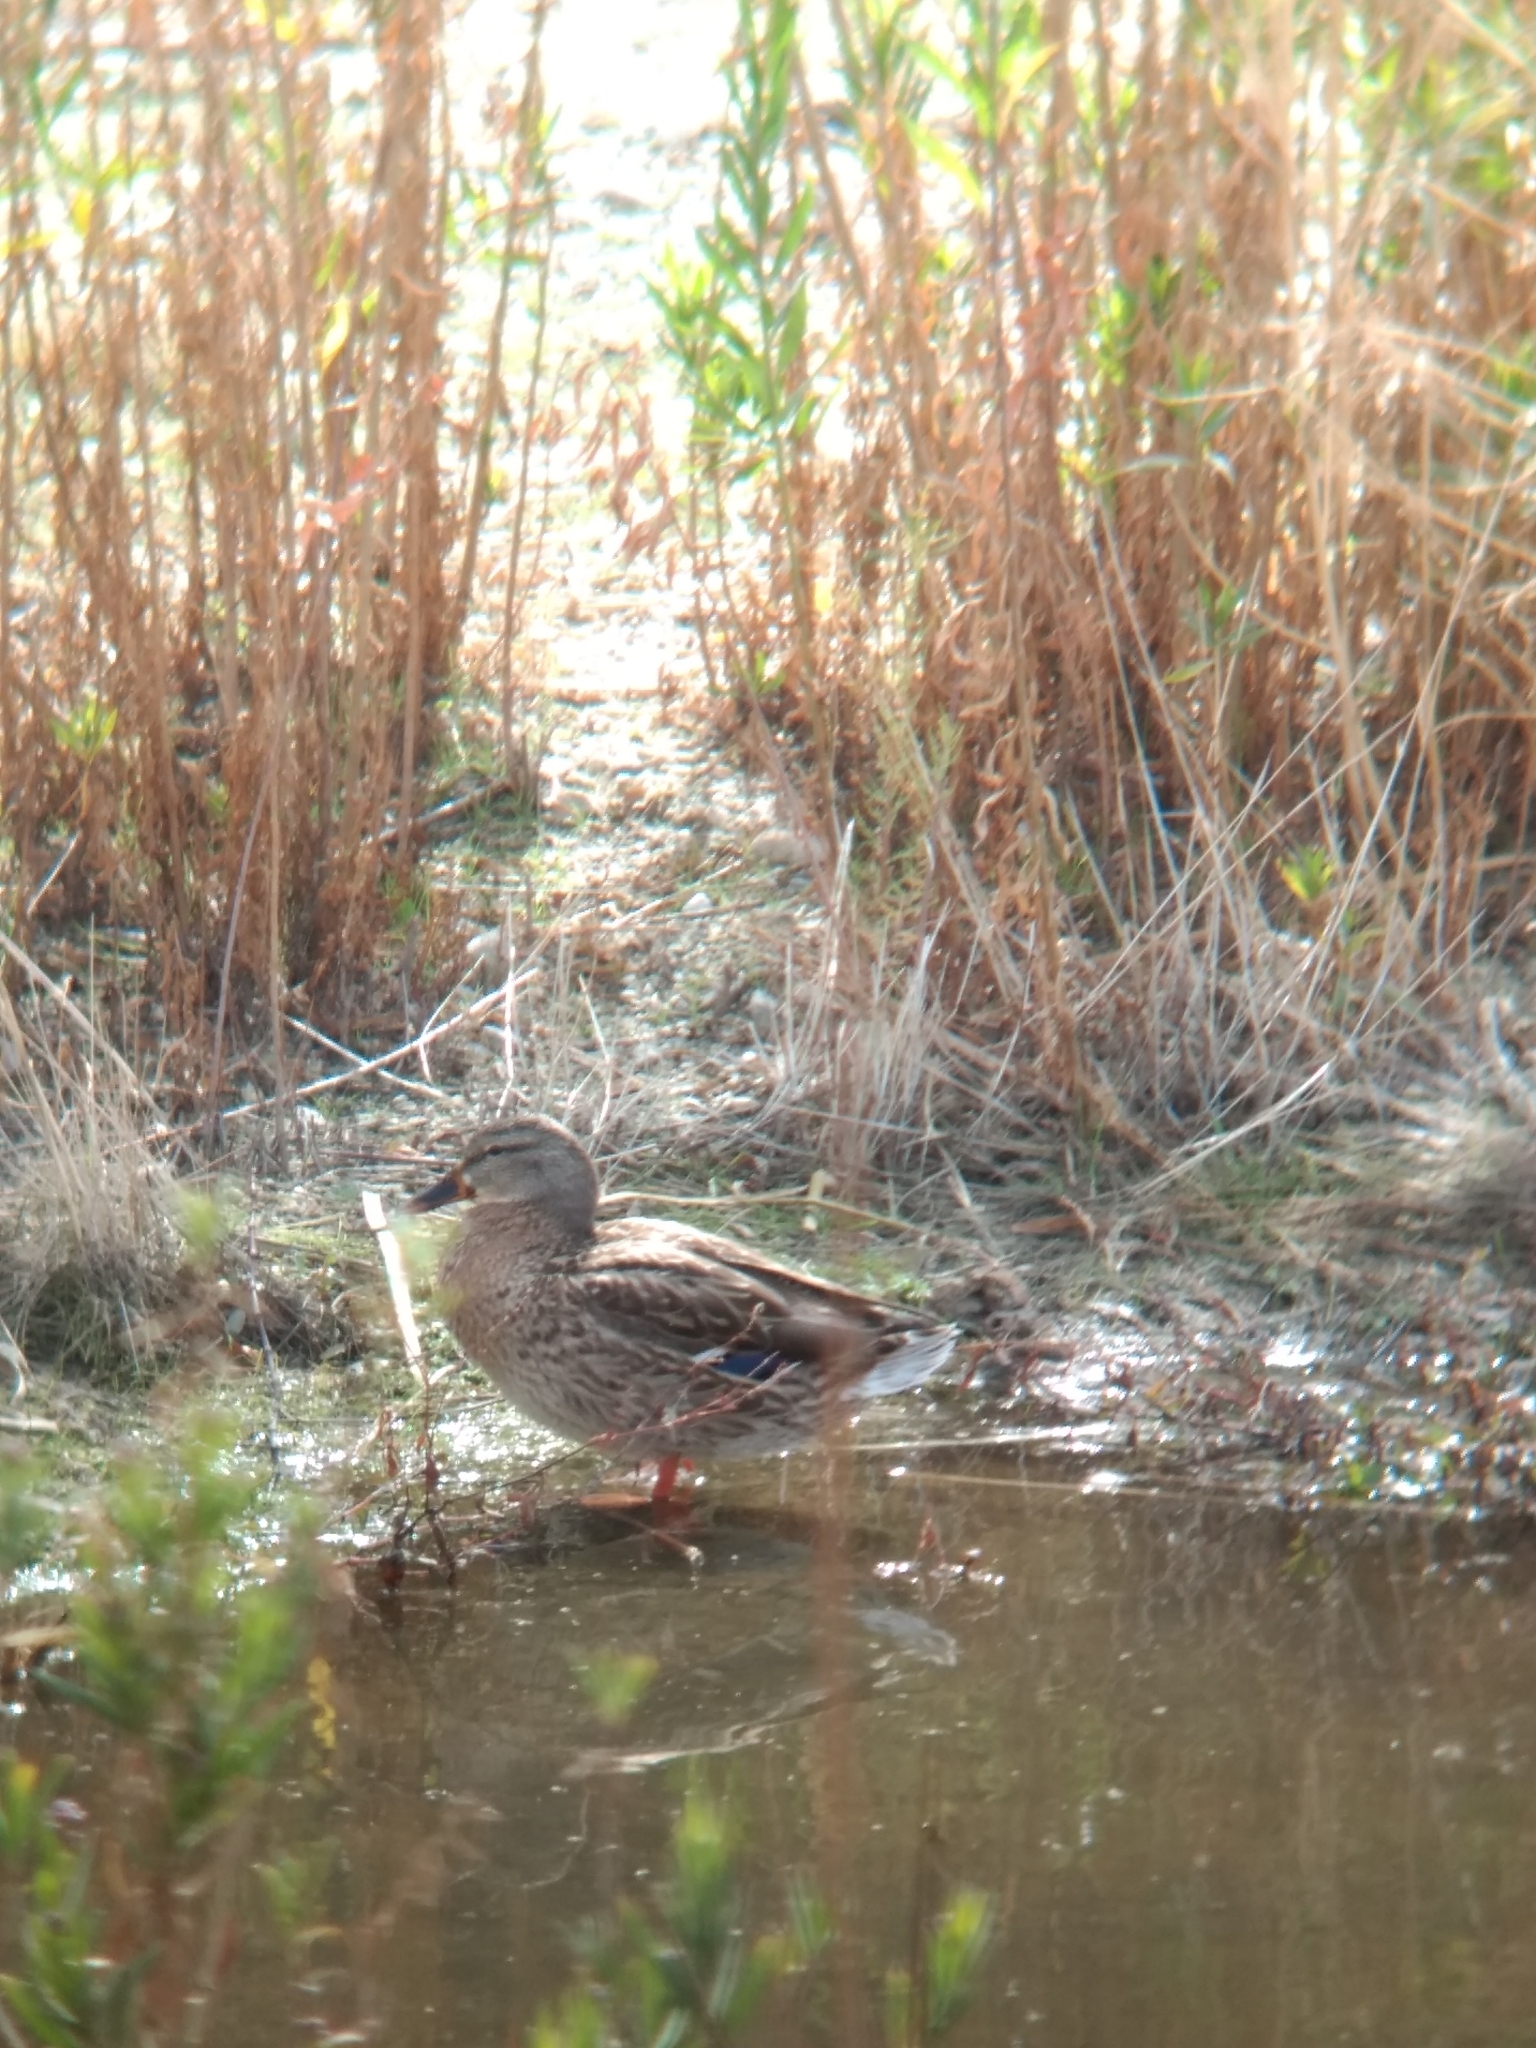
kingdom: Animalia
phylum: Chordata
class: Aves
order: Anseriformes
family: Anatidae
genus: Anas
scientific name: Anas platyrhynchos
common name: Mallard
